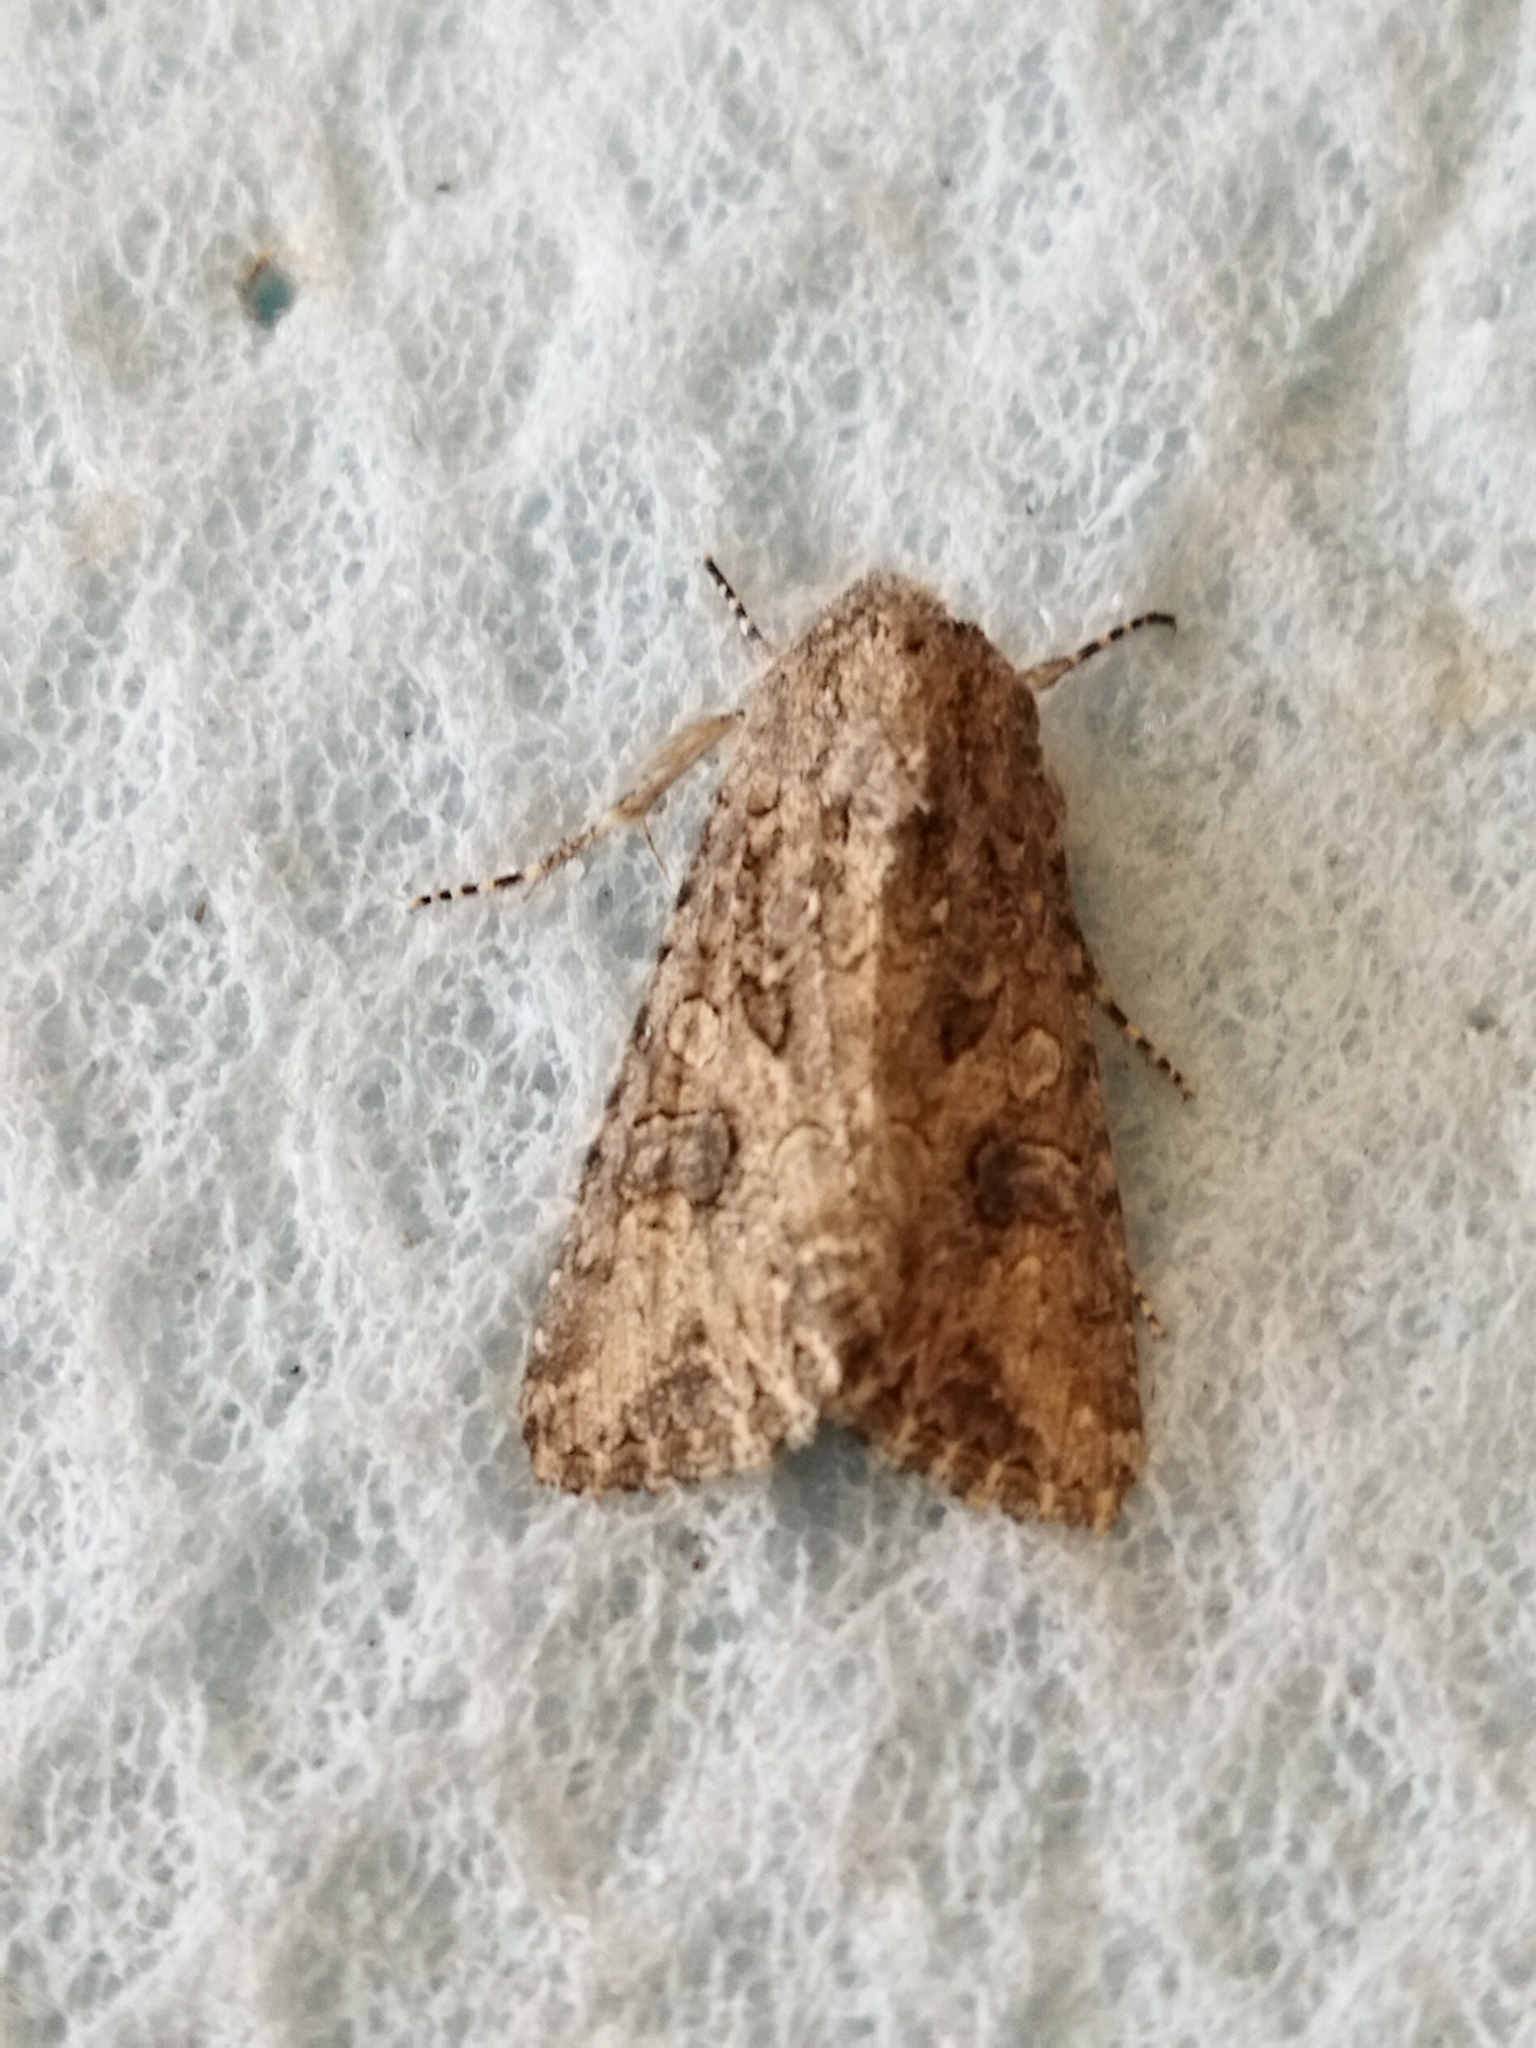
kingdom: Animalia
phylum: Arthropoda
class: Insecta
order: Lepidoptera
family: Noctuidae
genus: Anarta
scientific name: Anarta trifolii
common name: Clover cutworm moth
